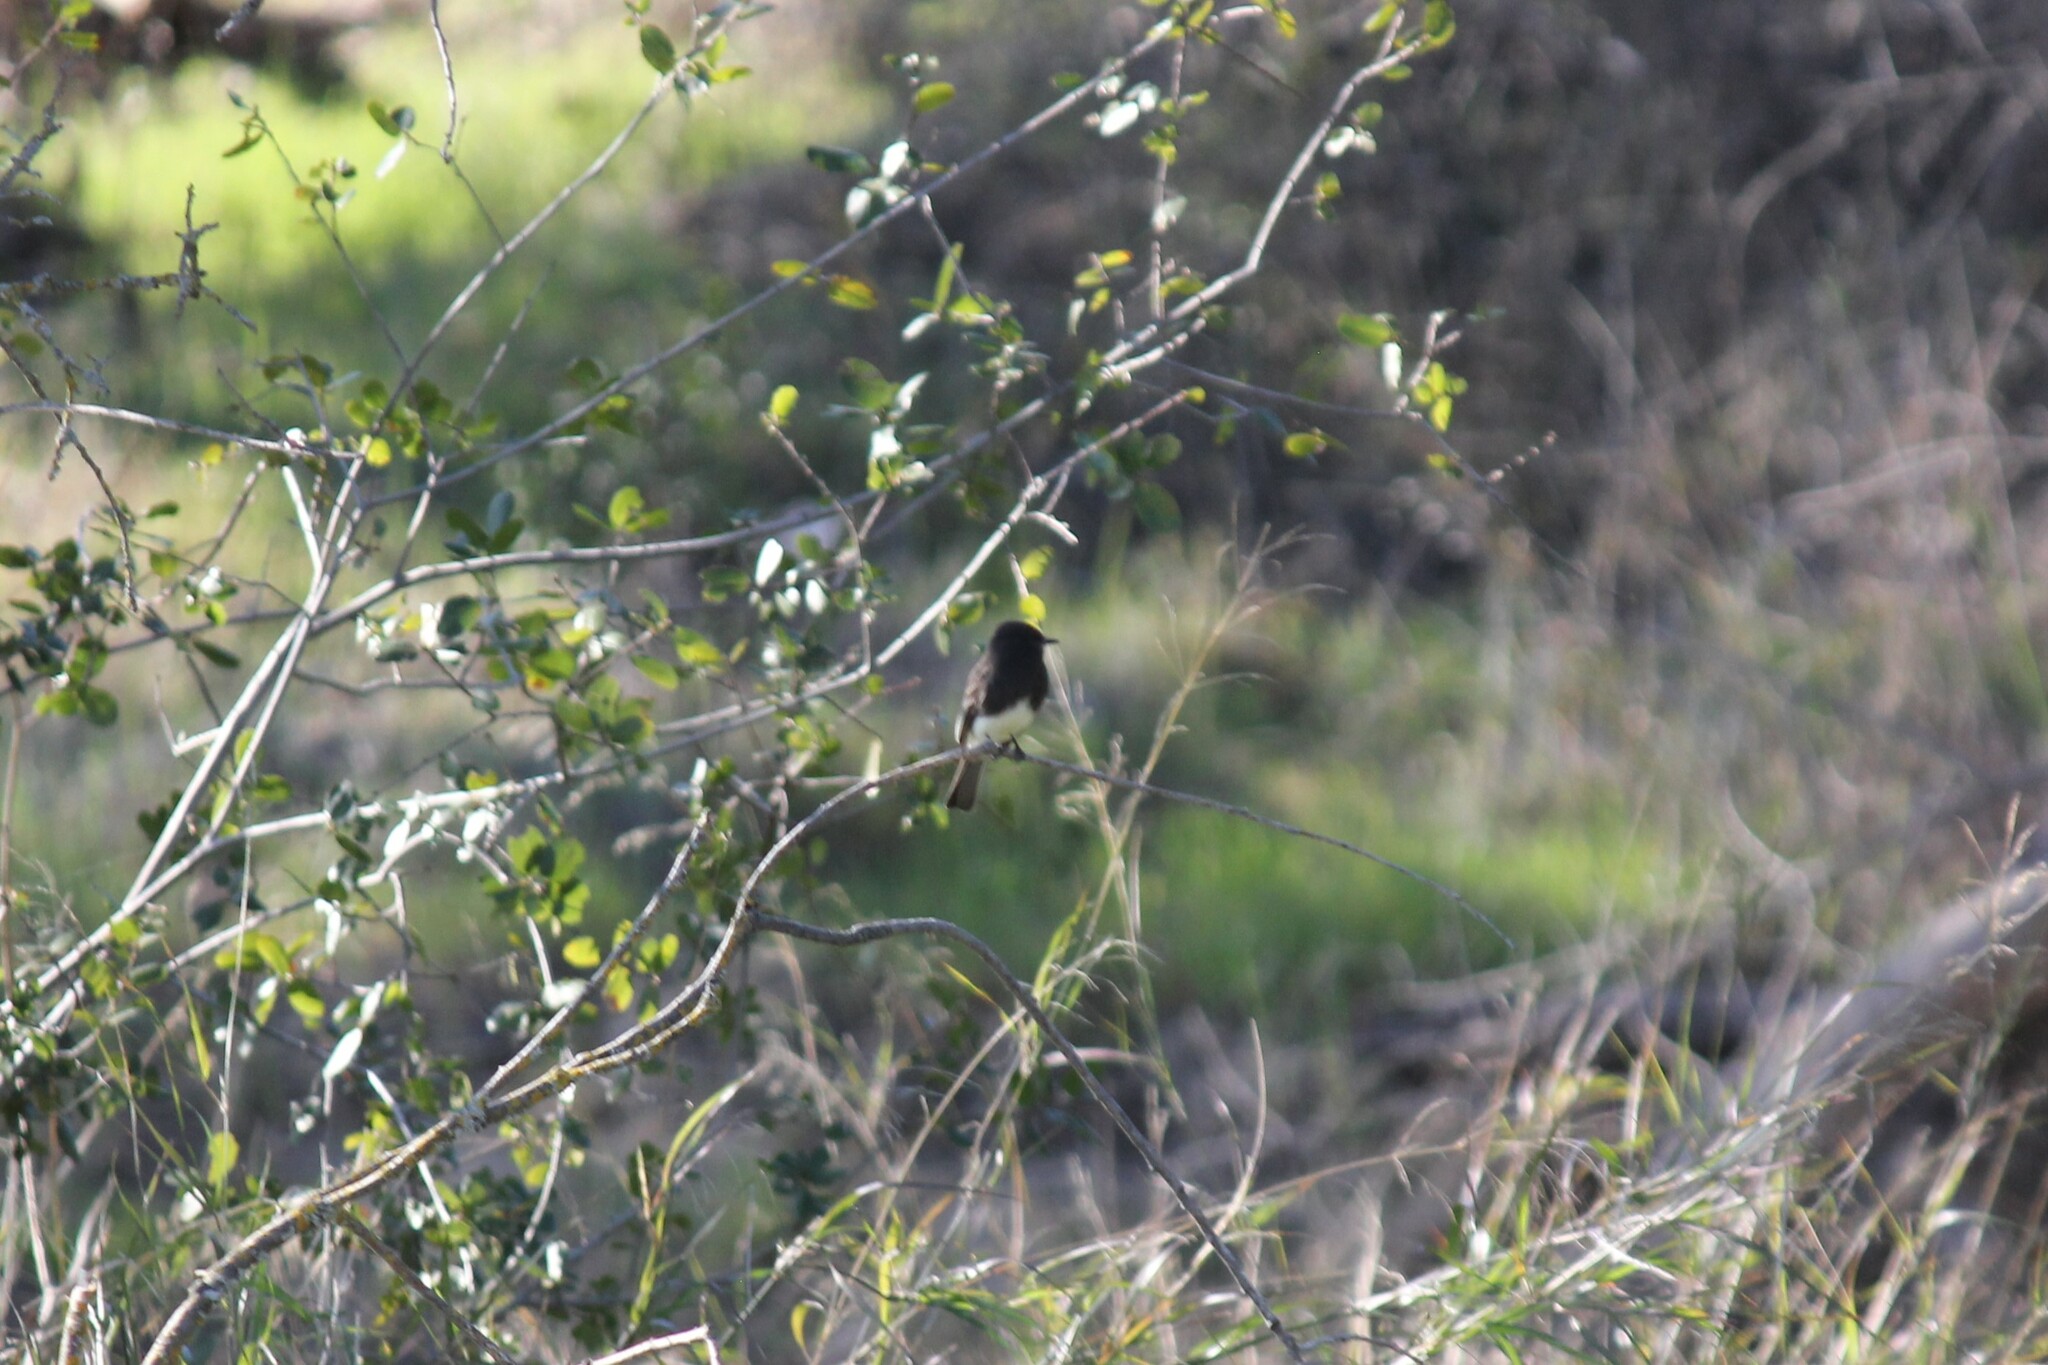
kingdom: Animalia
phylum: Chordata
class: Aves
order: Passeriformes
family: Tyrannidae
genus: Sayornis
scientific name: Sayornis nigricans
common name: Black phoebe
